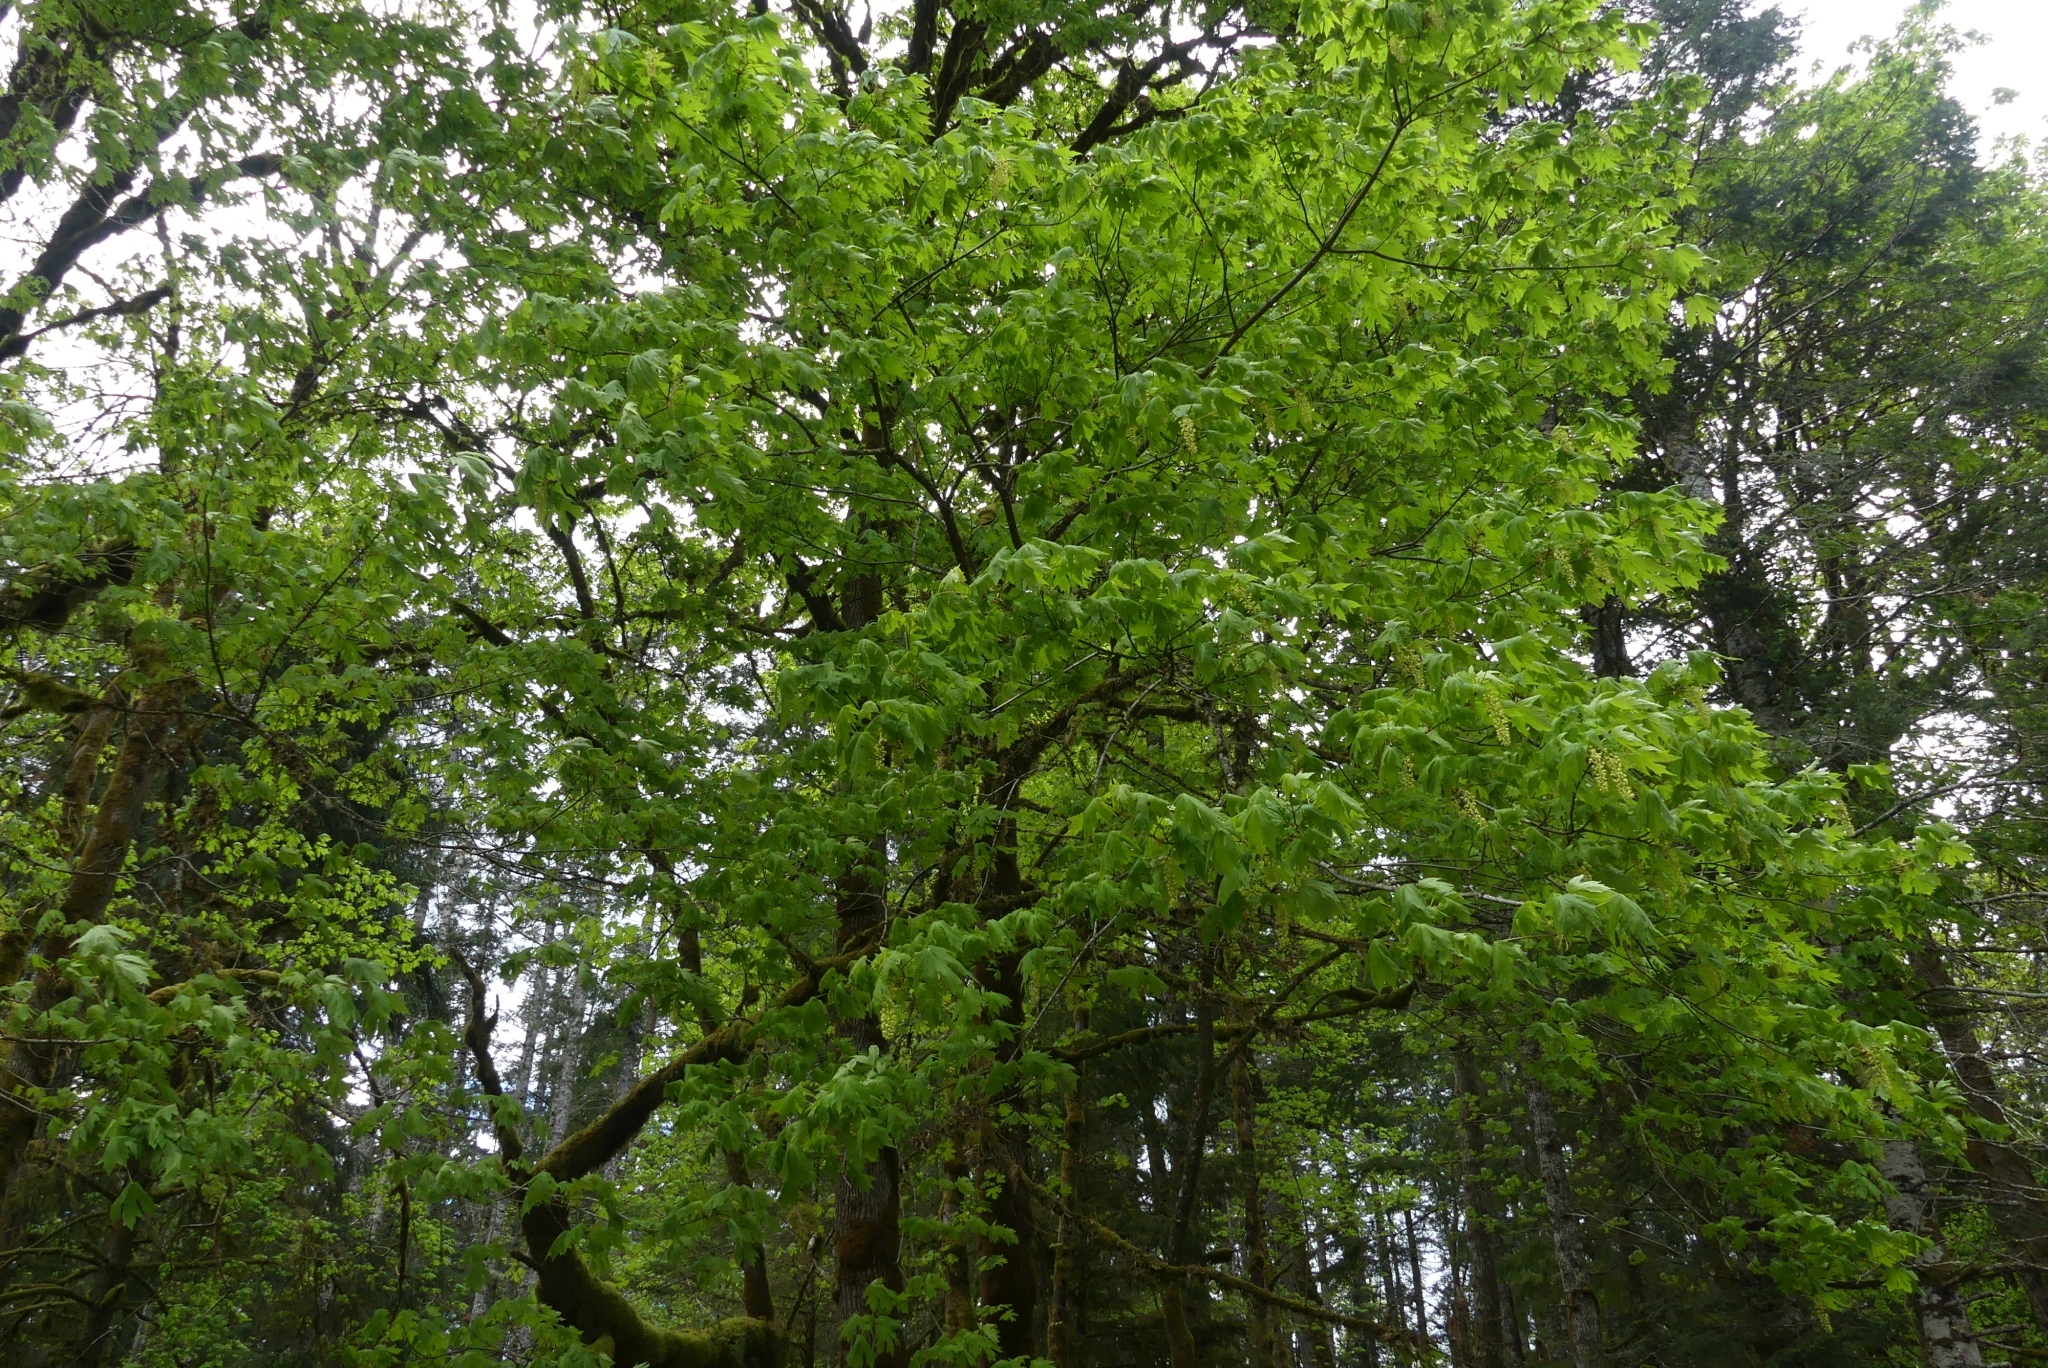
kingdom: Plantae
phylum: Tracheophyta
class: Magnoliopsida
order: Sapindales
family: Sapindaceae
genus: Acer
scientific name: Acer macrophyllum
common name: Oregon maple
